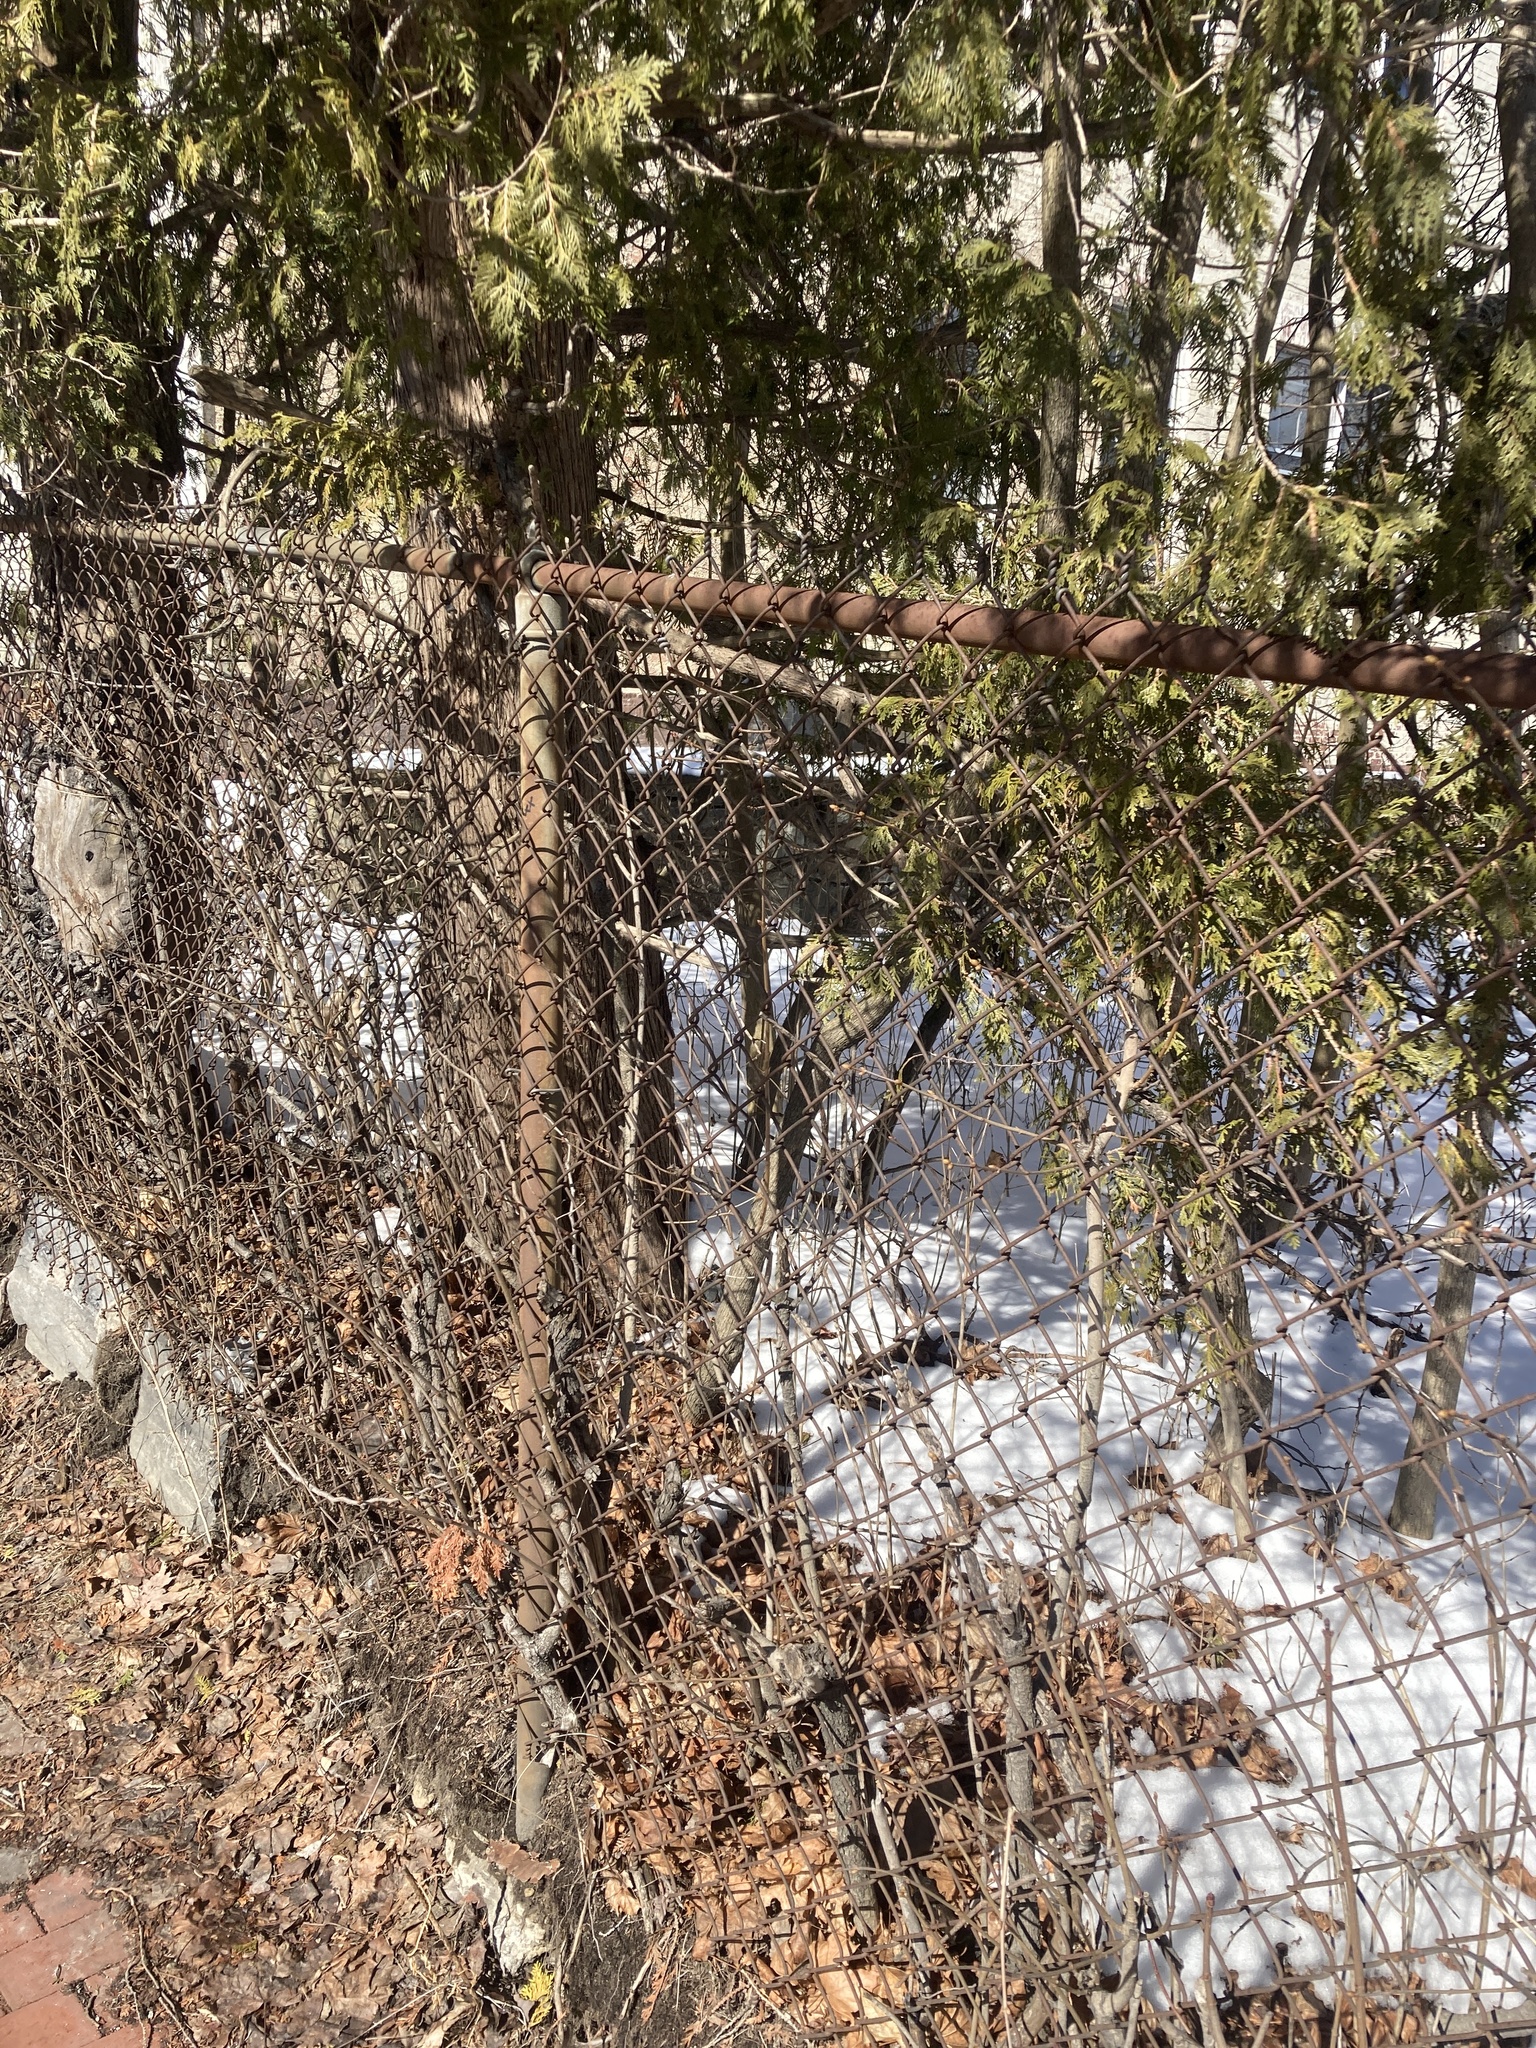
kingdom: Plantae
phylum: Tracheophyta
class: Pinopsida
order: Pinales
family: Cupressaceae
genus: Thuja
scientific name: Thuja occidentalis
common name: Northern white-cedar
